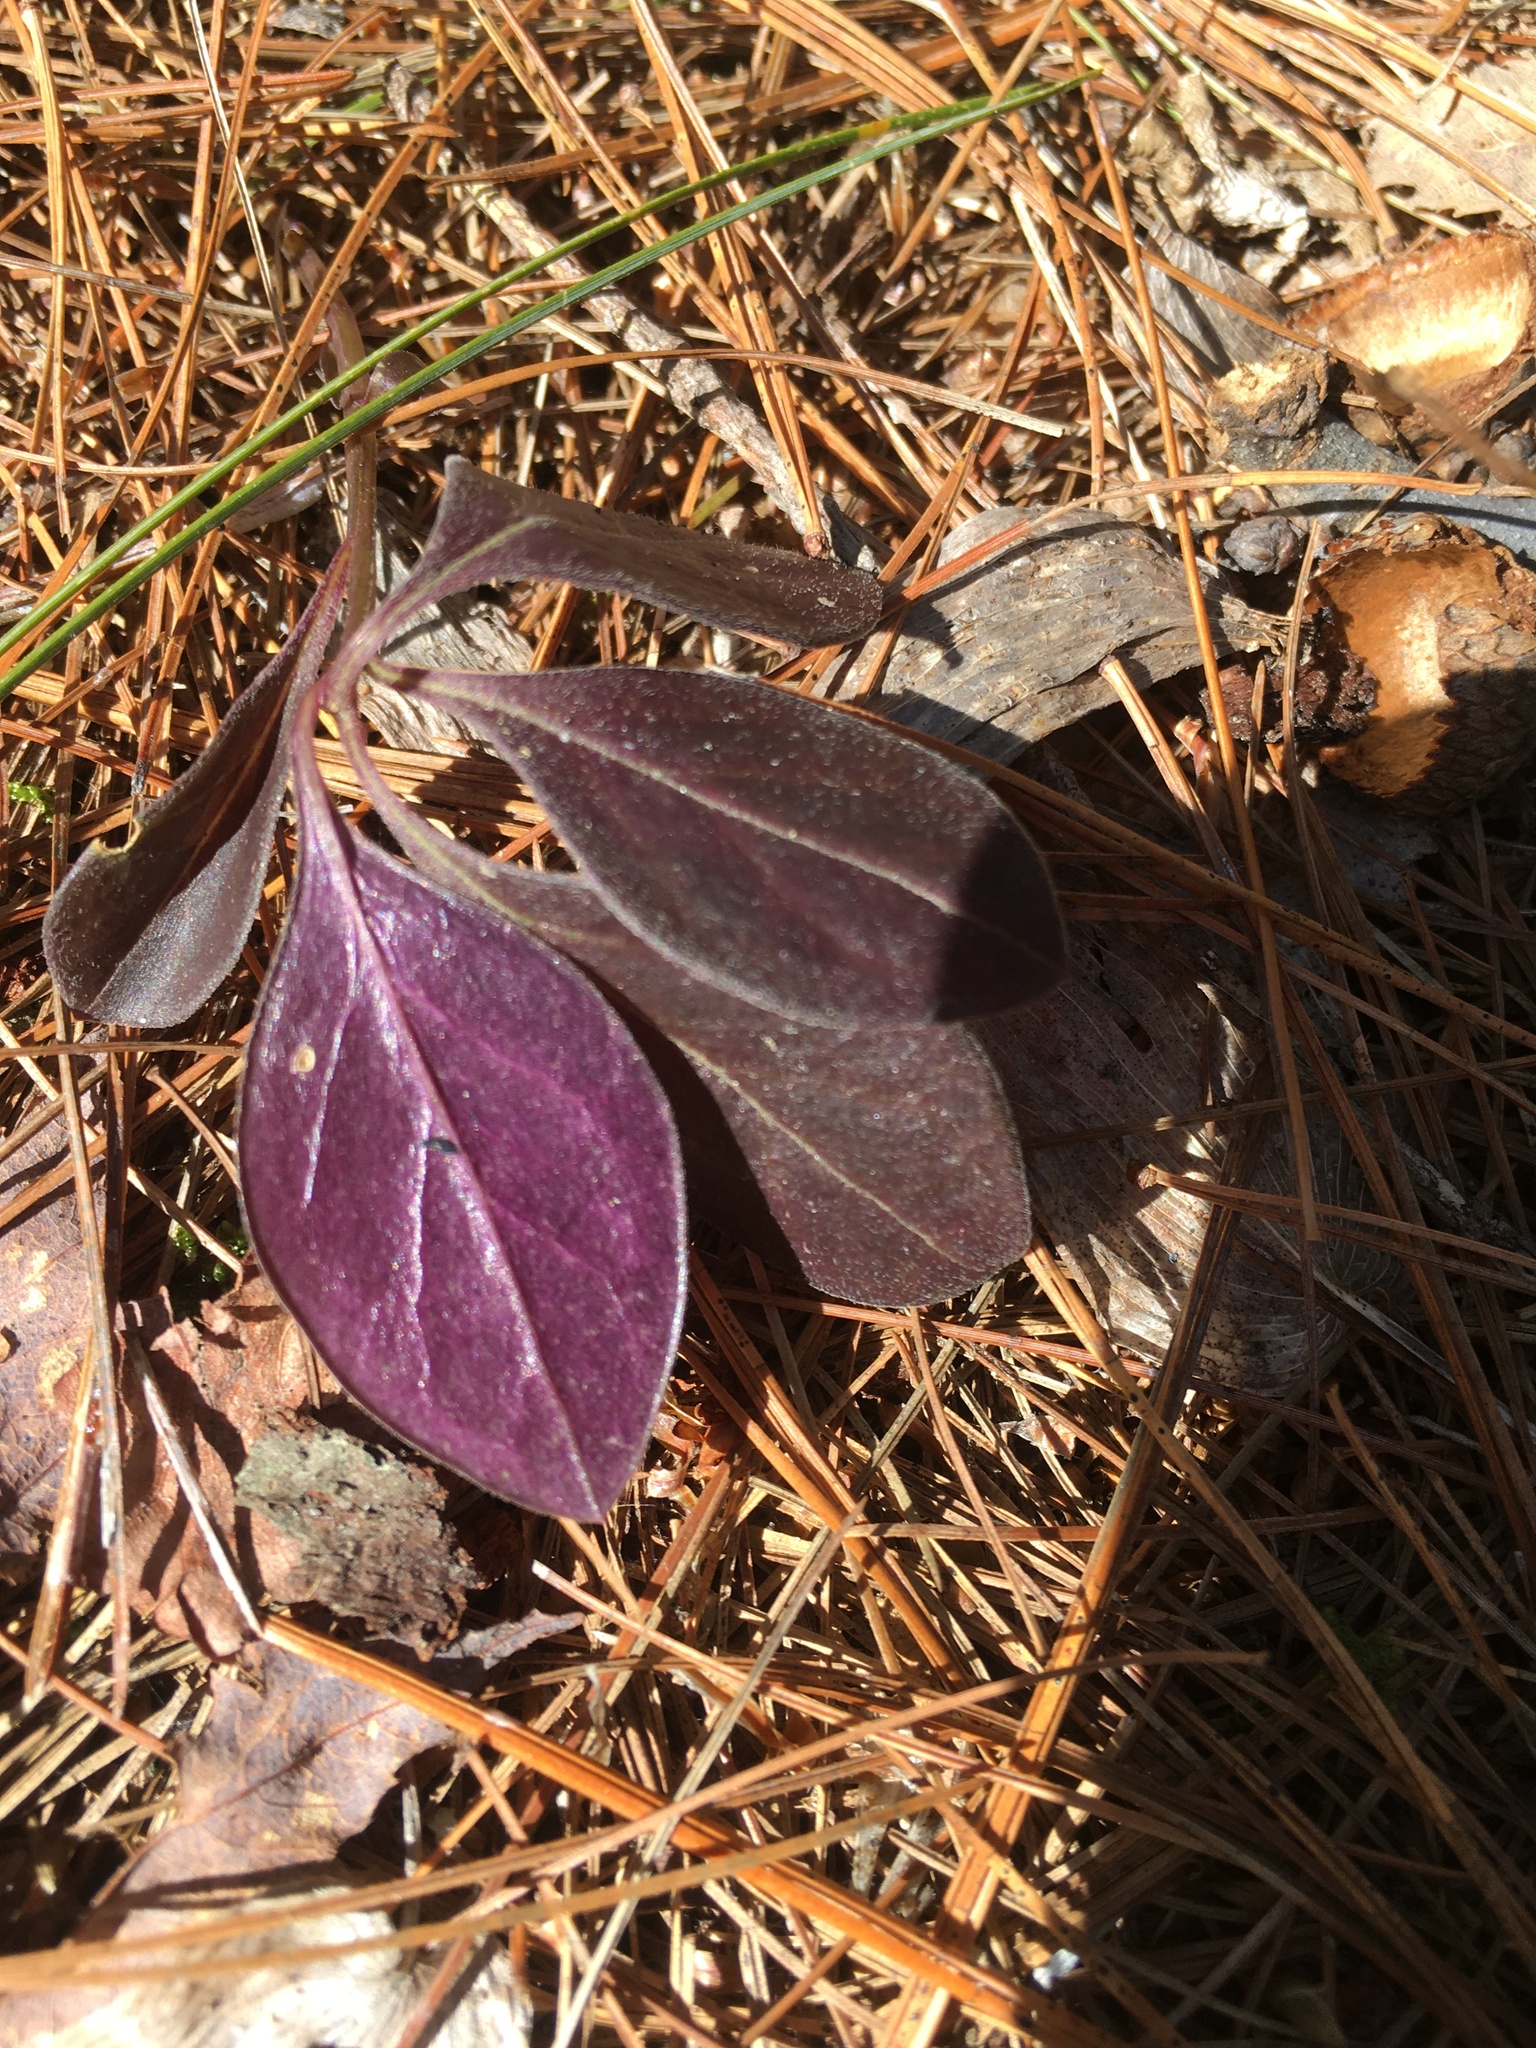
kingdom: Plantae
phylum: Tracheophyta
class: Magnoliopsida
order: Ericales
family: Ericaceae
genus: Gaultheria
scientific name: Gaultheria procumbens
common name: Checkerberry
